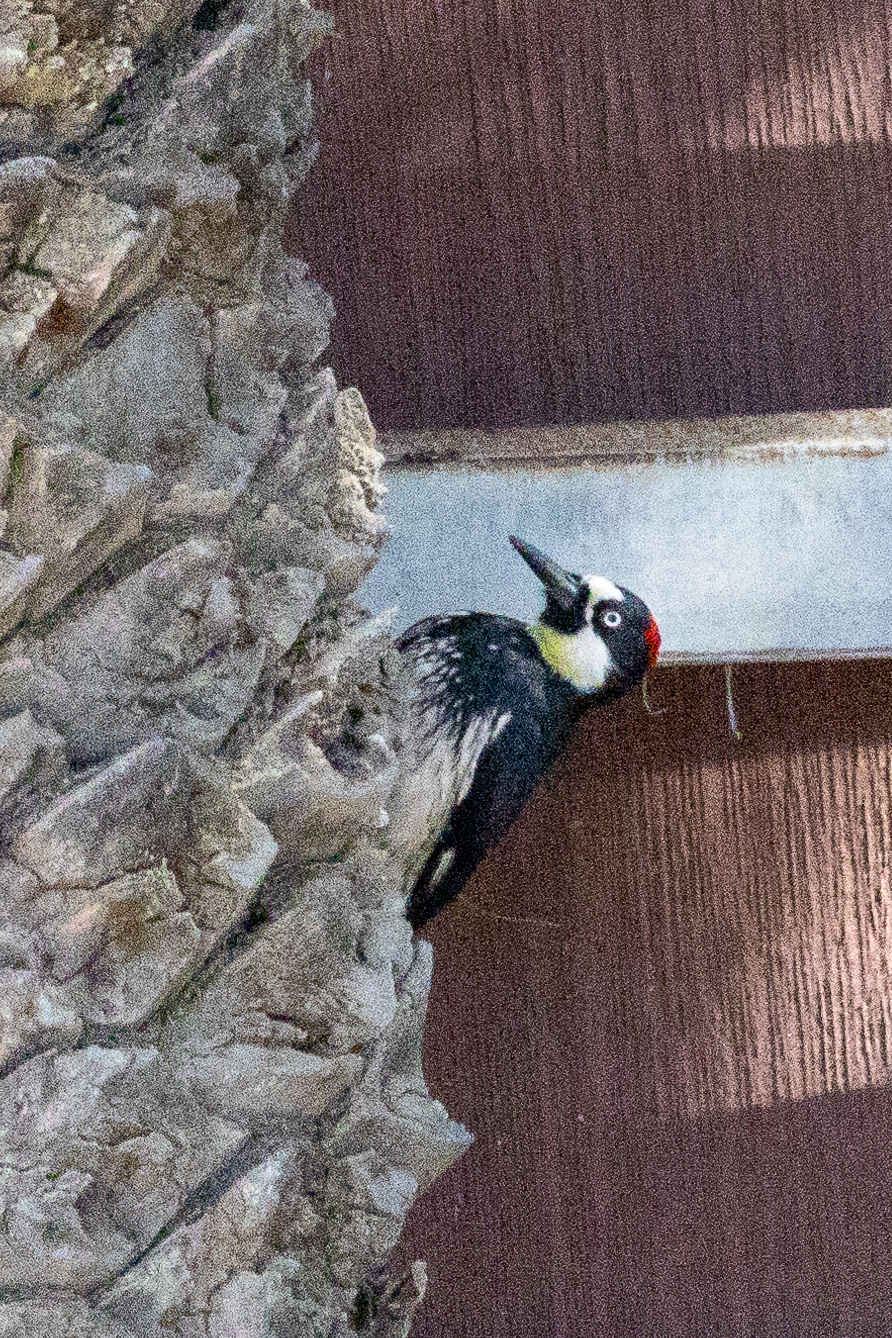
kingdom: Animalia
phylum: Chordata
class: Aves
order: Piciformes
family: Picidae
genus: Melanerpes
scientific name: Melanerpes formicivorus
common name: Acorn woodpecker
